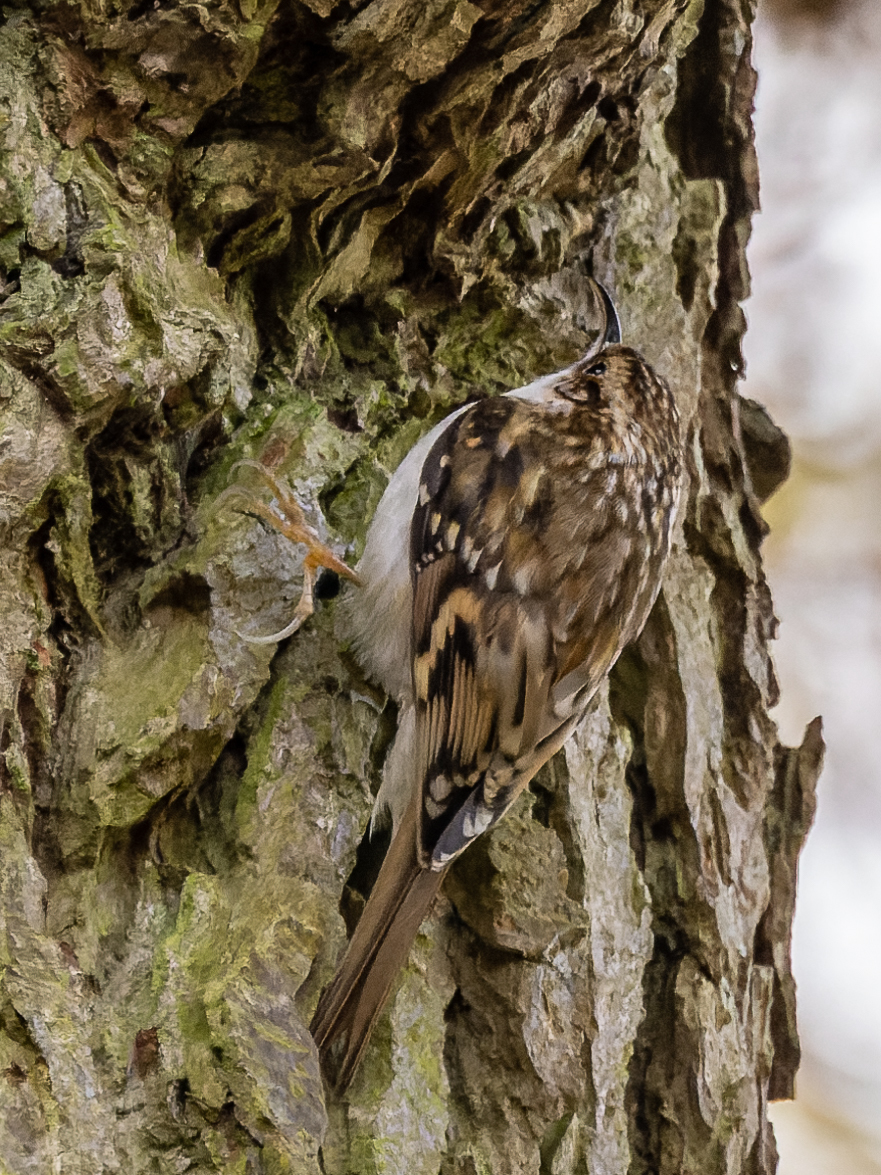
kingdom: Animalia
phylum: Chordata
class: Aves
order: Passeriformes
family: Certhiidae
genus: Certhia
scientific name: Certhia familiaris
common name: Eurasian treecreeper
